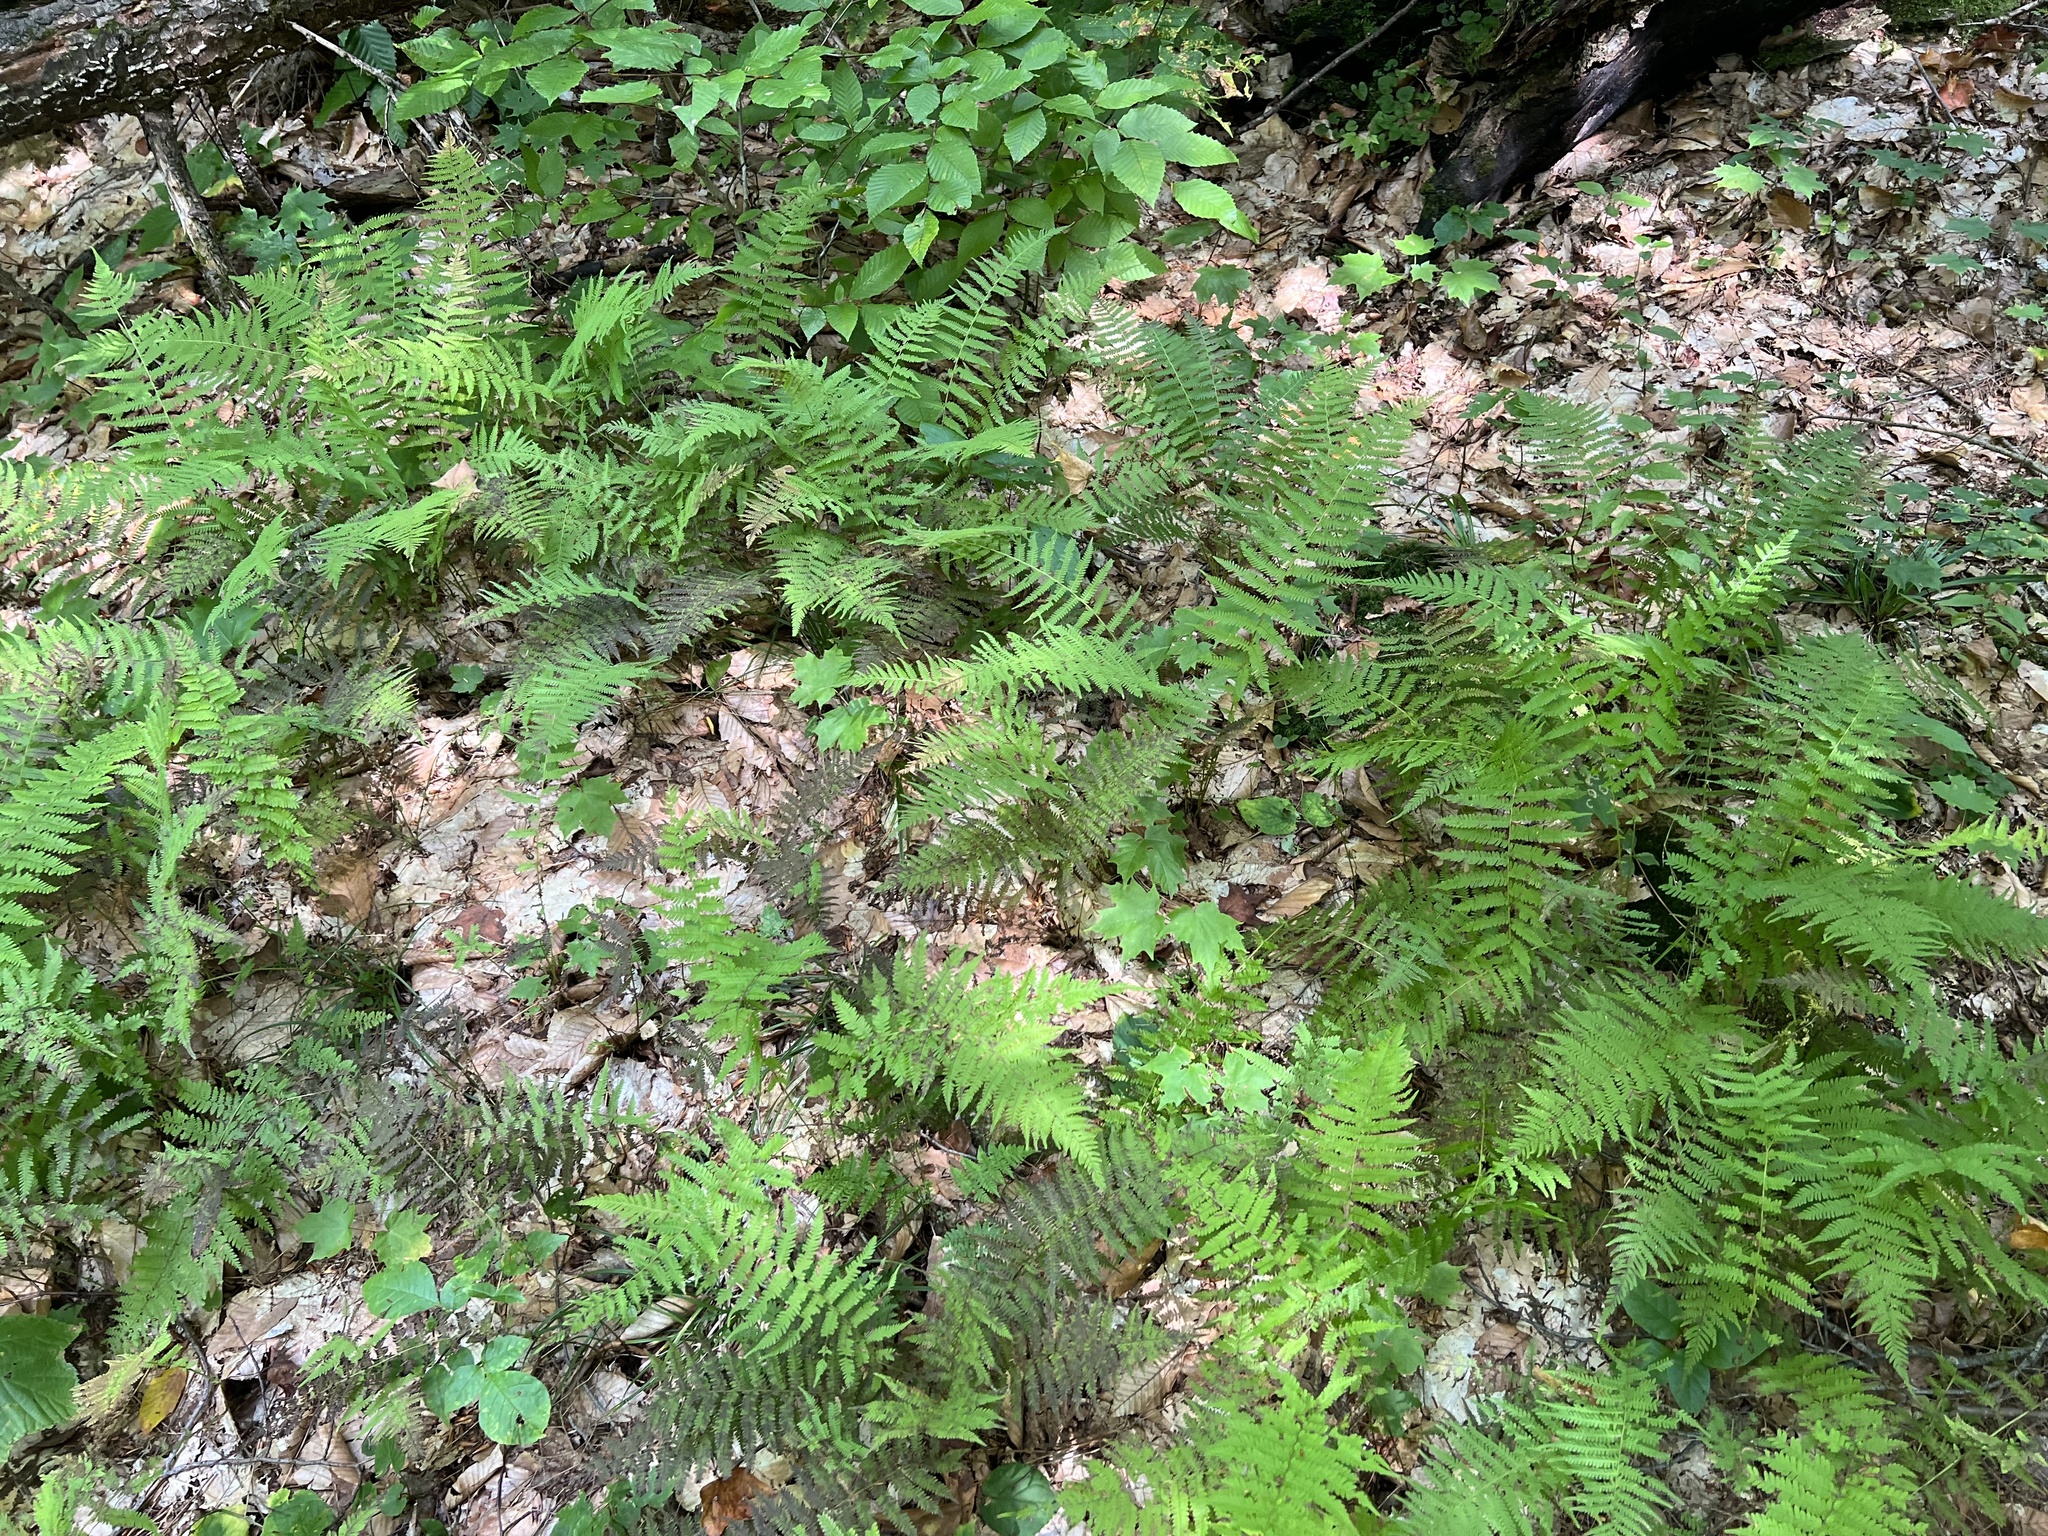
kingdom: Plantae
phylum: Tracheophyta
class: Polypodiopsida
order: Polypodiales
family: Thelypteridaceae
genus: Amauropelta
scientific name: Amauropelta noveboracensis
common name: New york fern
